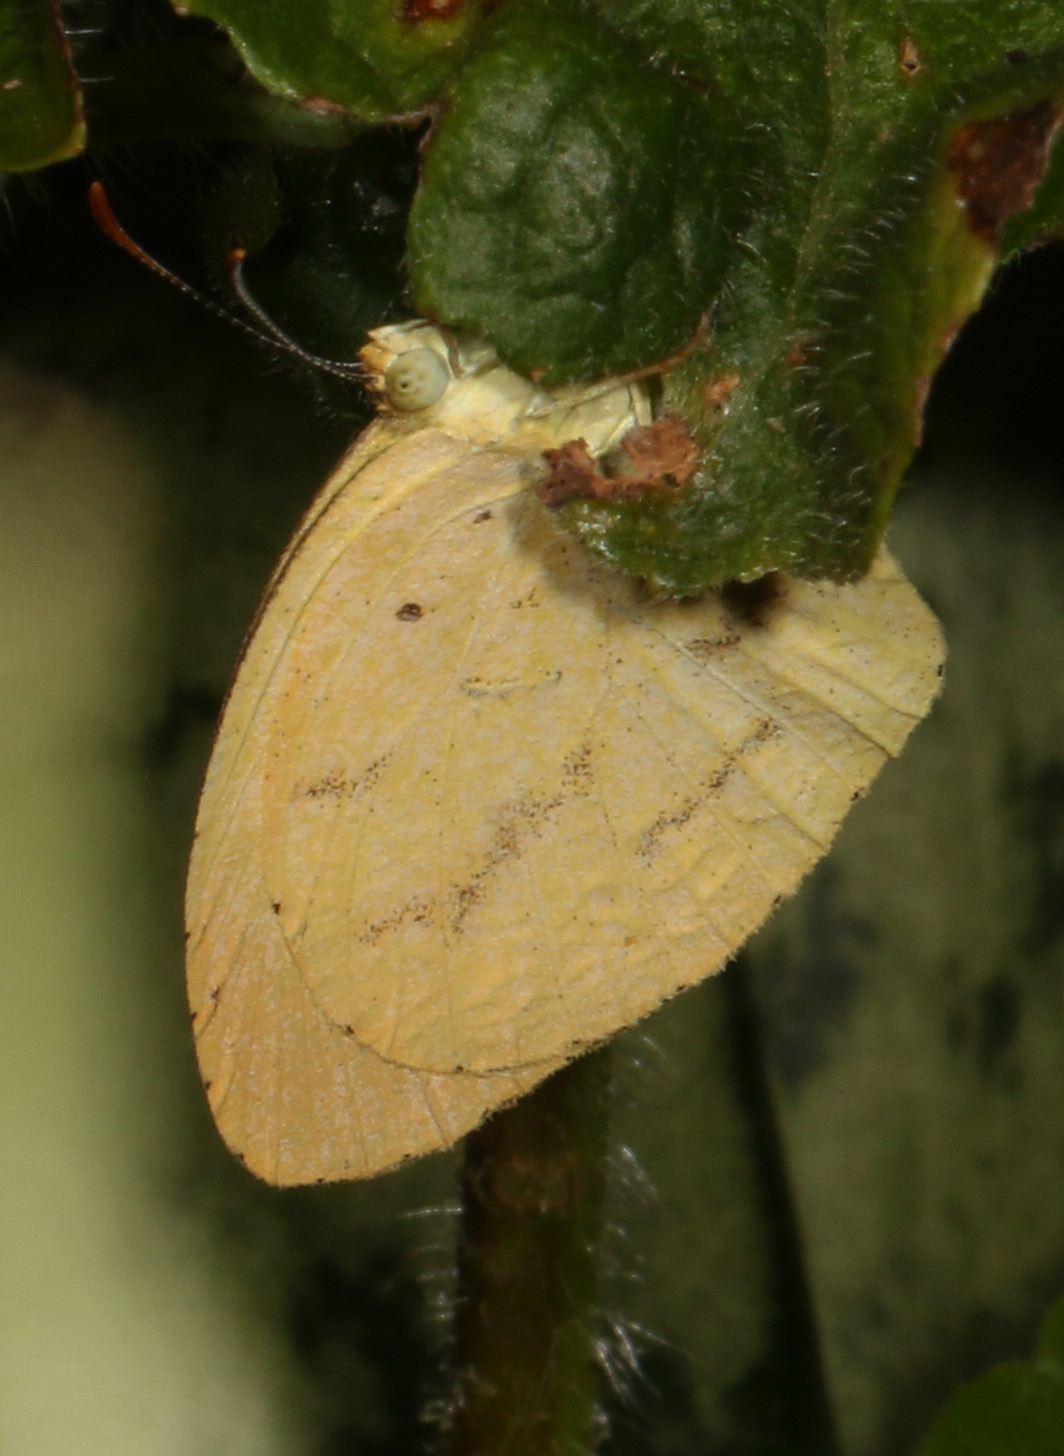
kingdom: Animalia
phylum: Arthropoda
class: Insecta
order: Lepidoptera
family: Pieridae
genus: Eurema
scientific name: Eurema brigitta
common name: Small grass yellow
